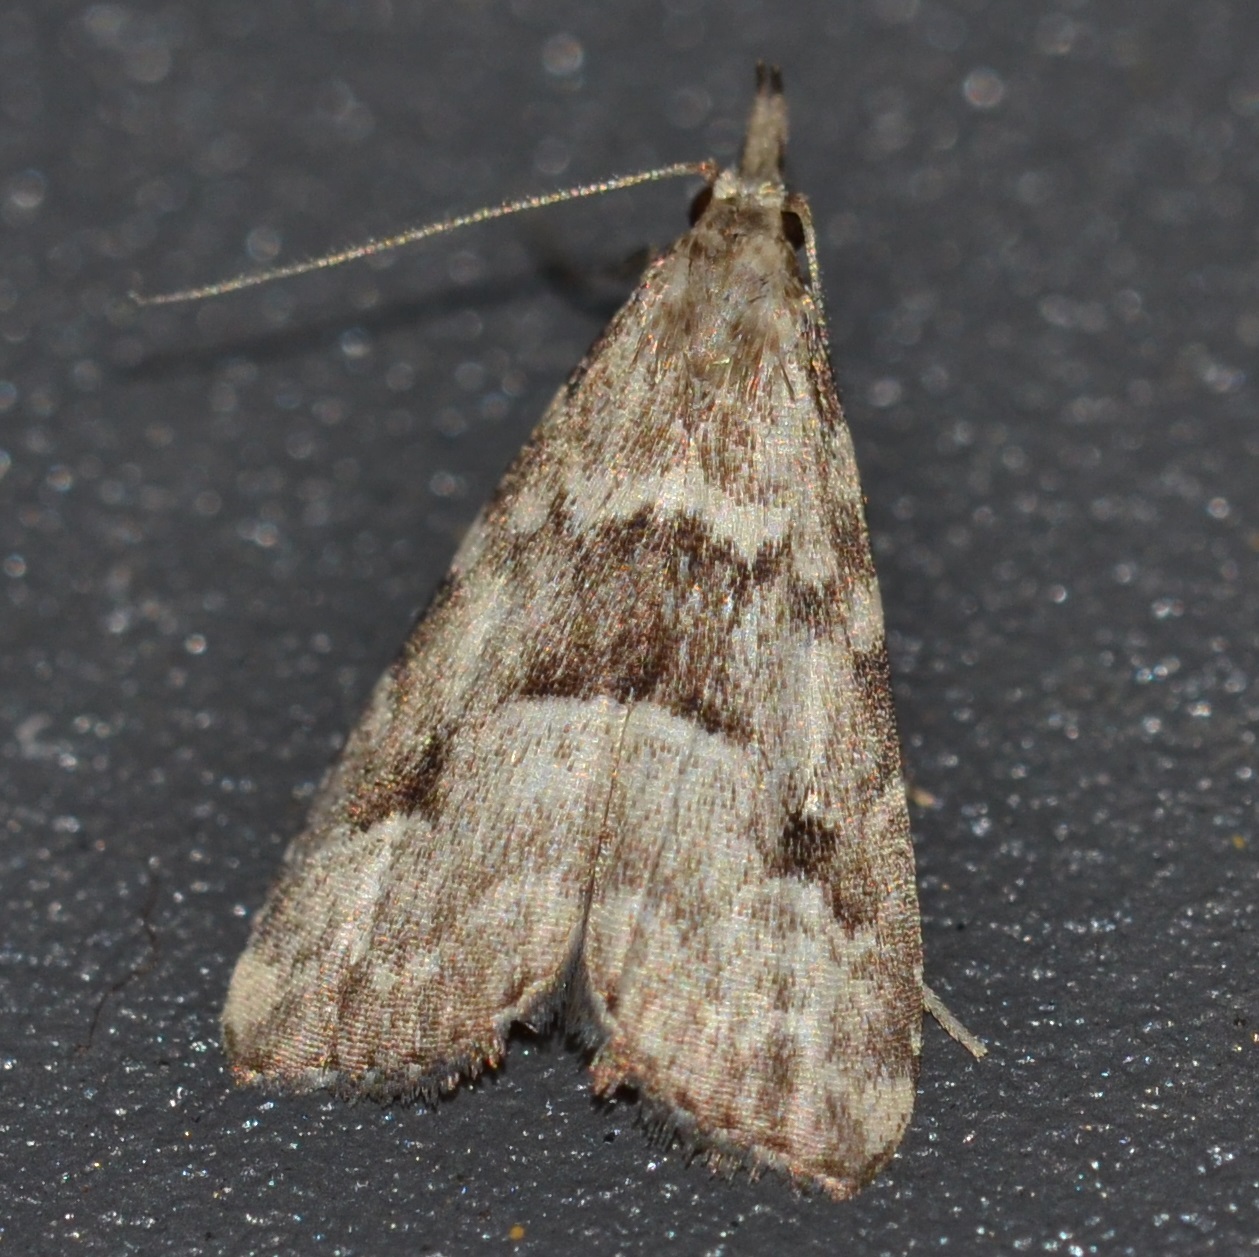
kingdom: Animalia
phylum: Arthropoda
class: Insecta
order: Lepidoptera
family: Erebidae
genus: Schrankia
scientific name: Schrankia howarthi
